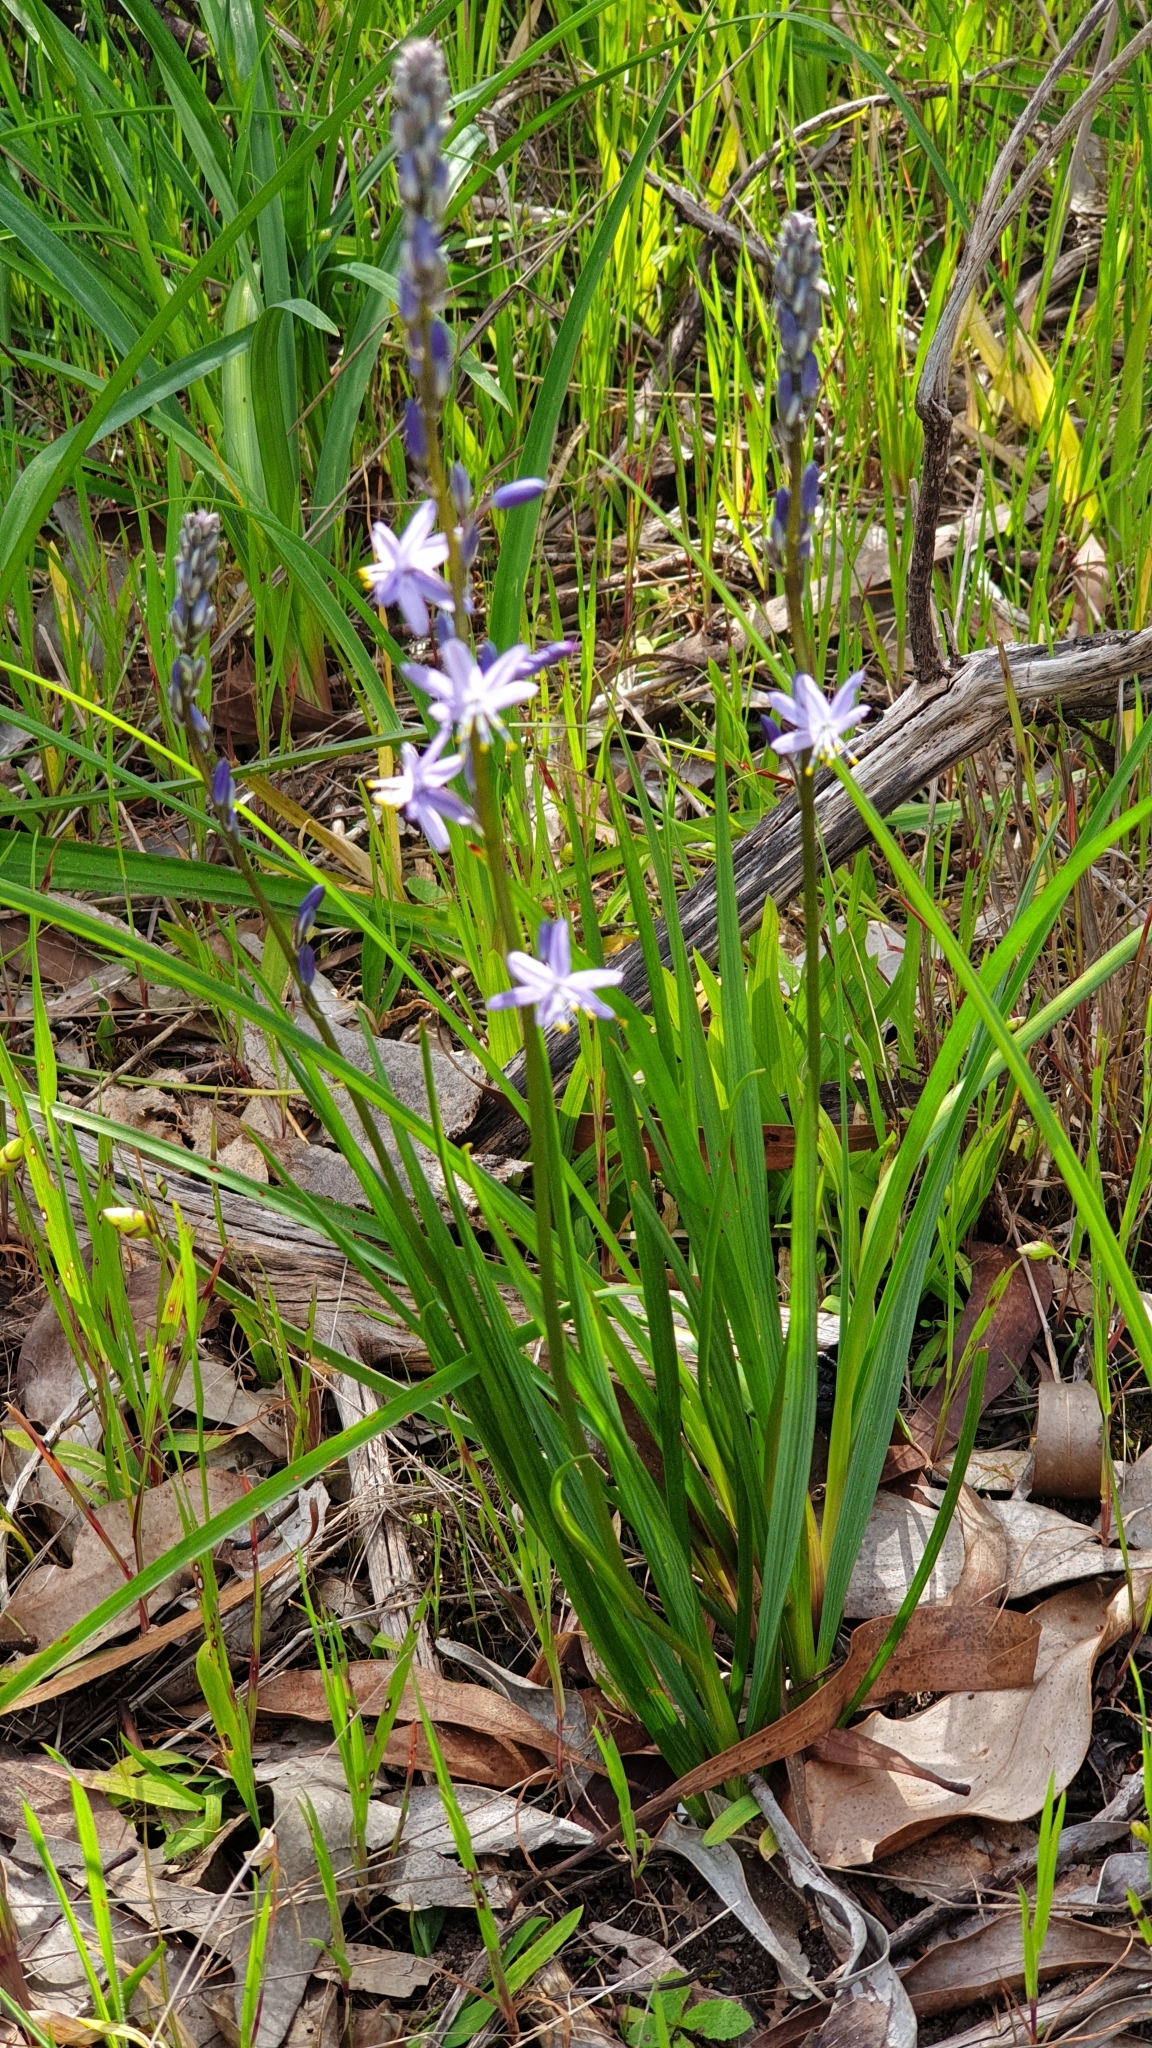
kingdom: Plantae
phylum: Tracheophyta
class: Liliopsida
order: Asparagales
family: Asphodelaceae
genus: Caesia
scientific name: Caesia calliantha
